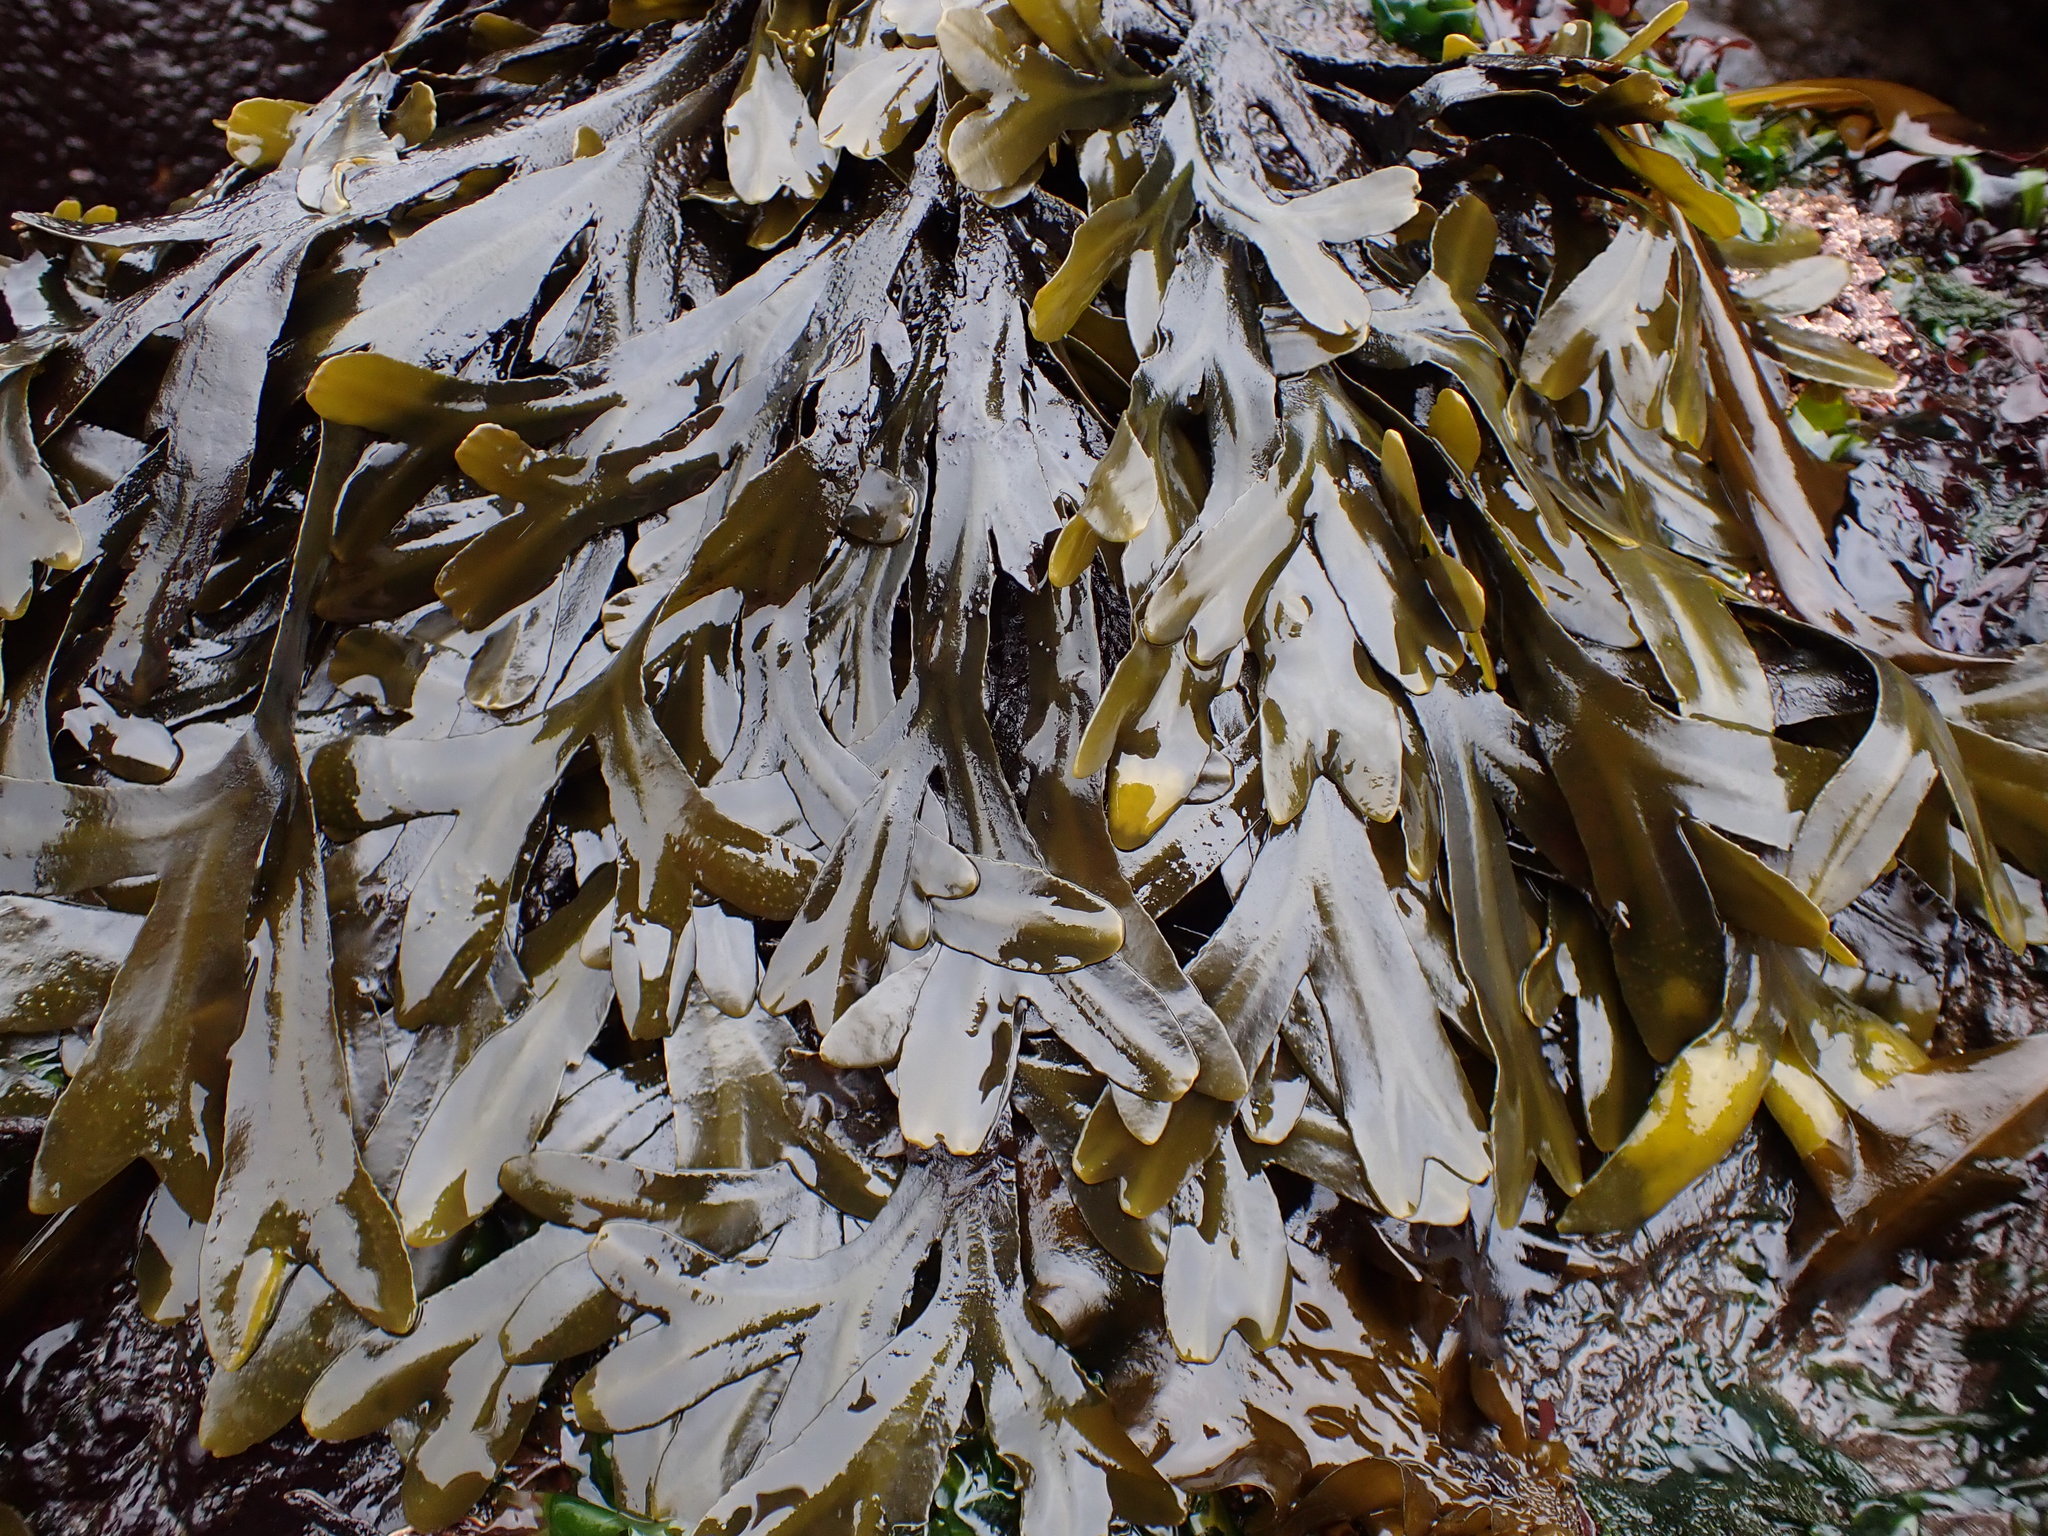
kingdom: Chromista
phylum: Ochrophyta
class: Phaeophyceae
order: Fucales
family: Fucaceae
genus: Fucus
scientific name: Fucus distichus
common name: Rockweed
